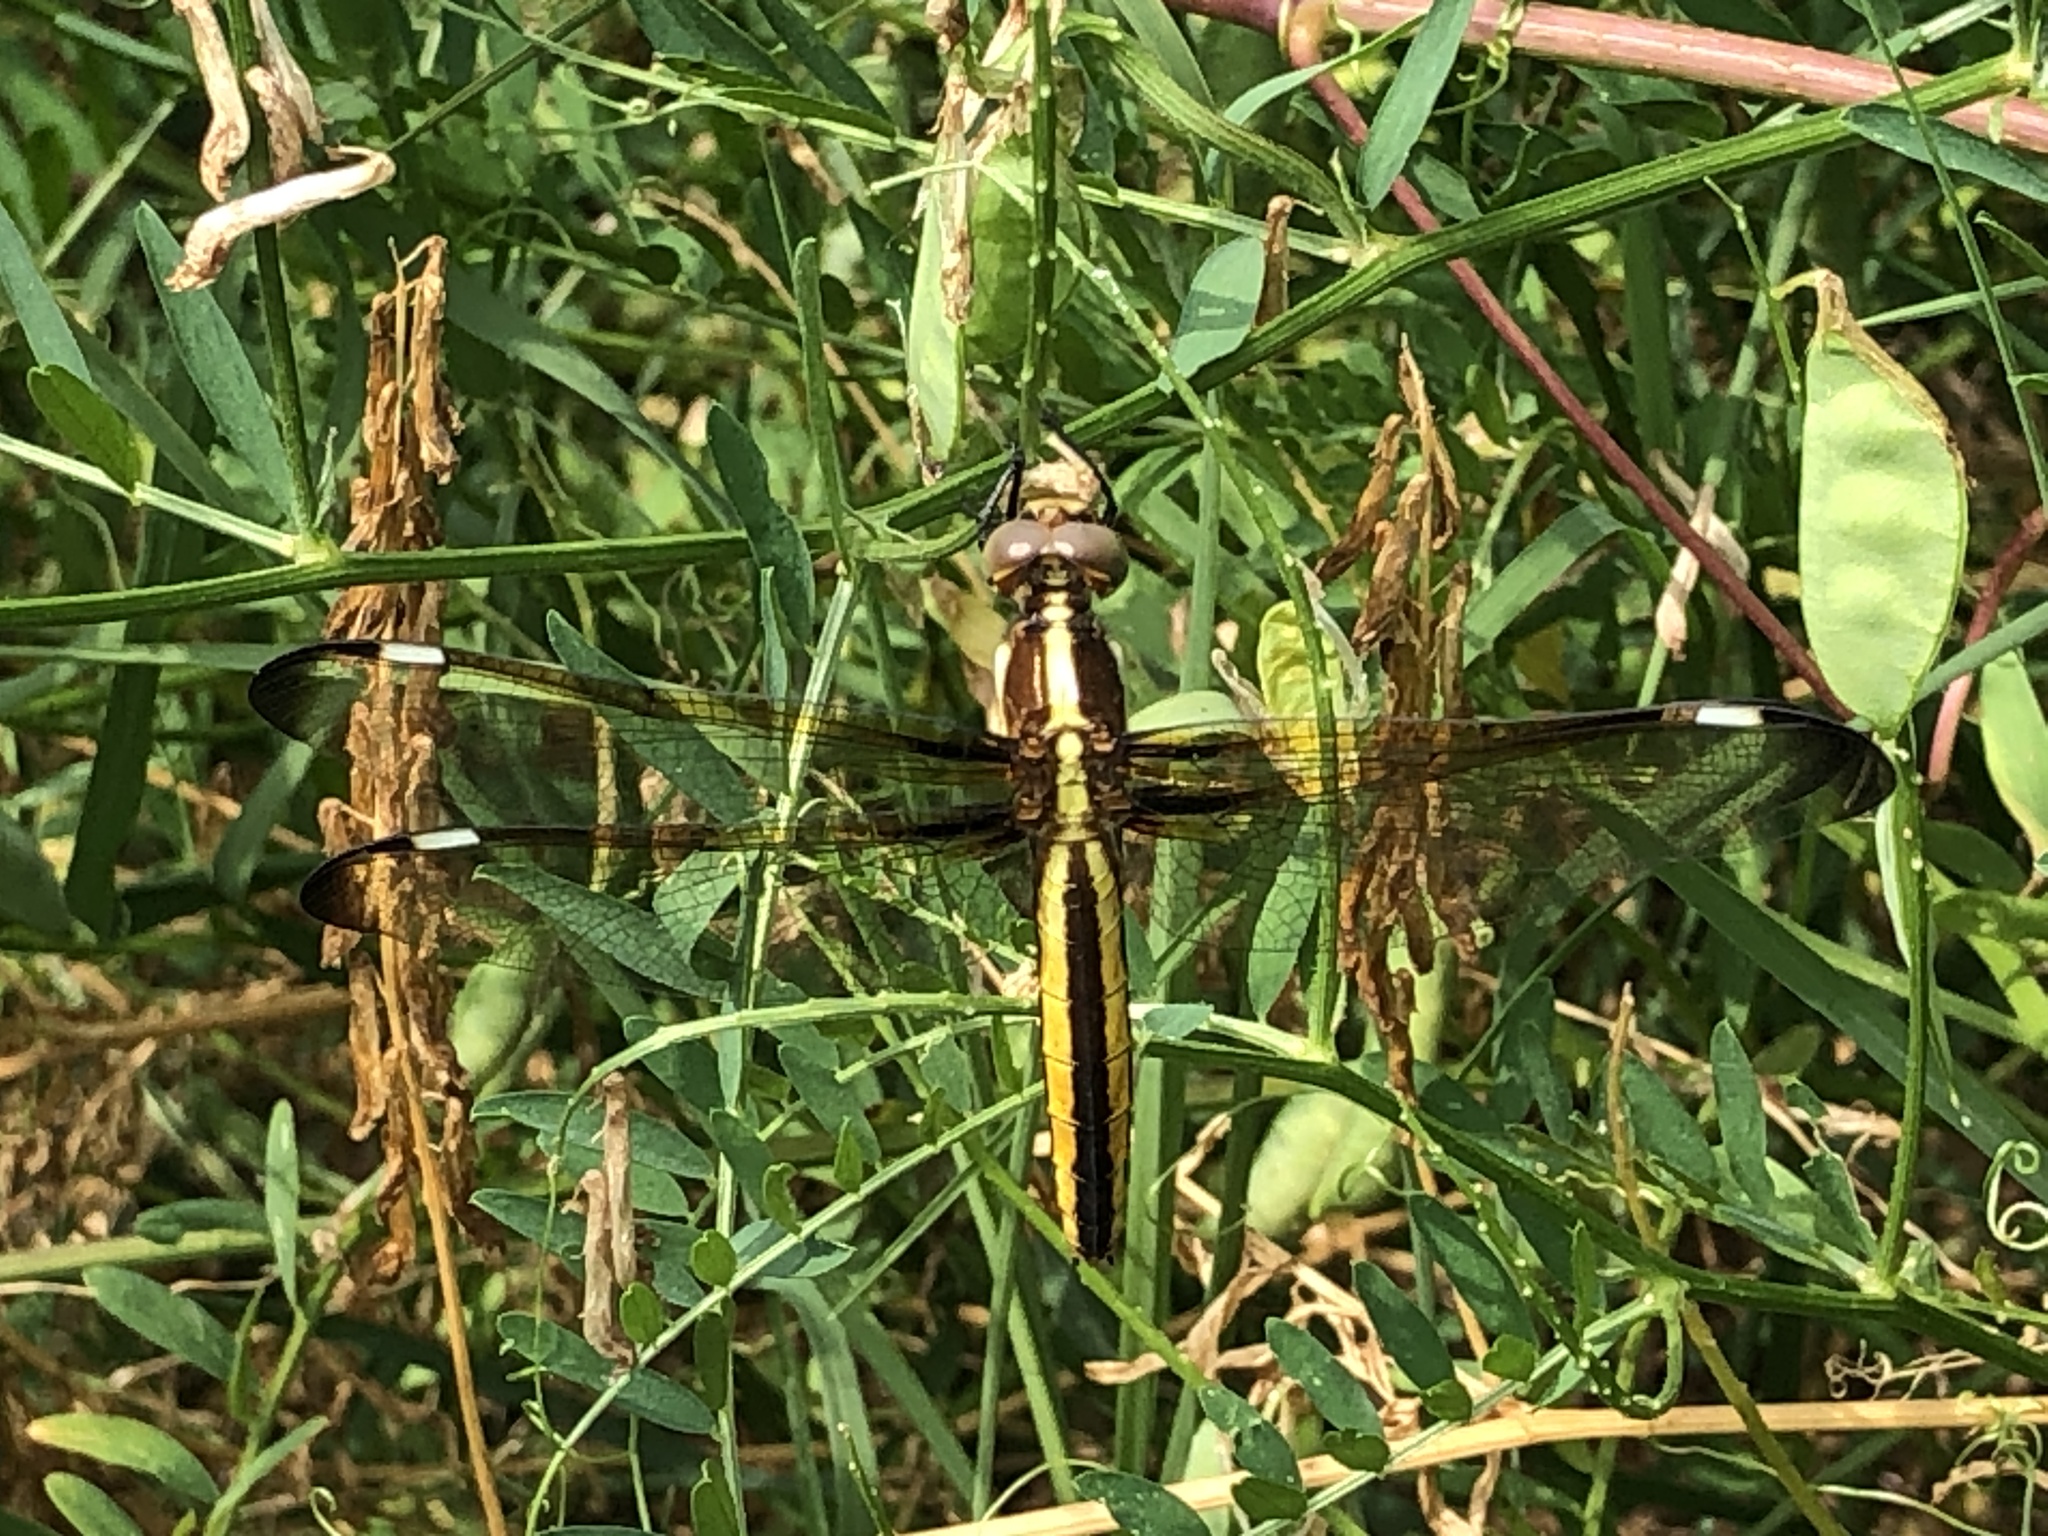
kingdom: Animalia
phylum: Arthropoda
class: Insecta
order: Odonata
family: Libellulidae
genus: Libellula
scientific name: Libellula cyanea
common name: Spangled skimmer
